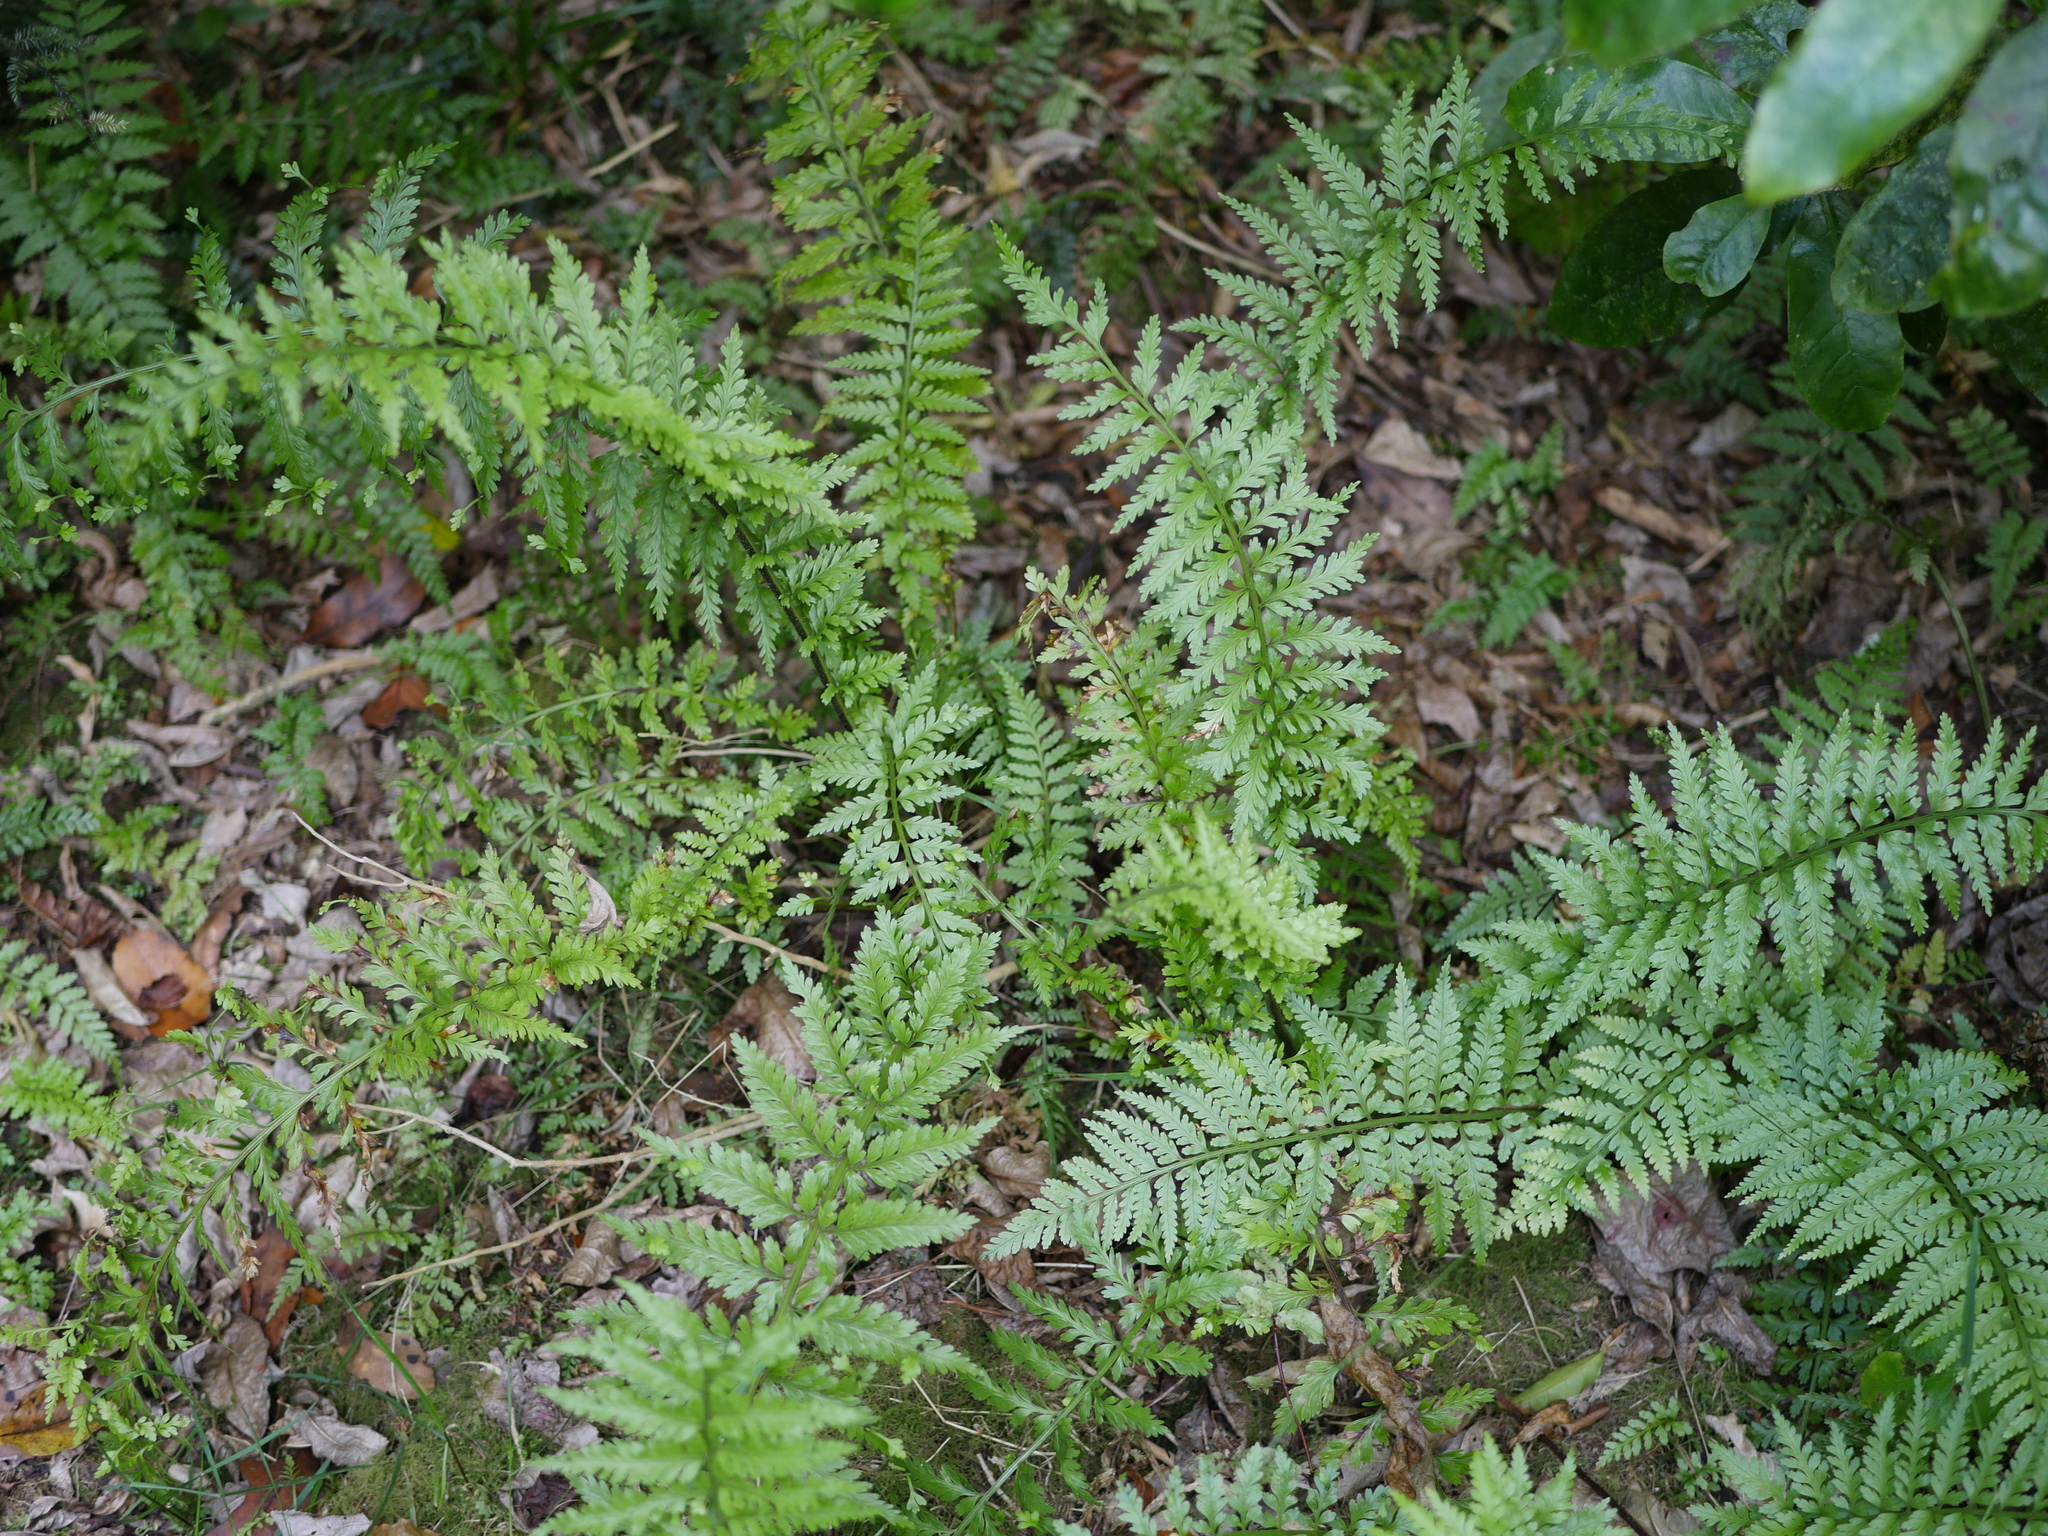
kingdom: Plantae
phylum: Tracheophyta
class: Polypodiopsida
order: Polypodiales
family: Aspleniaceae
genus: Asplenium
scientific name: Asplenium bulbiferum
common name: Mother fern
